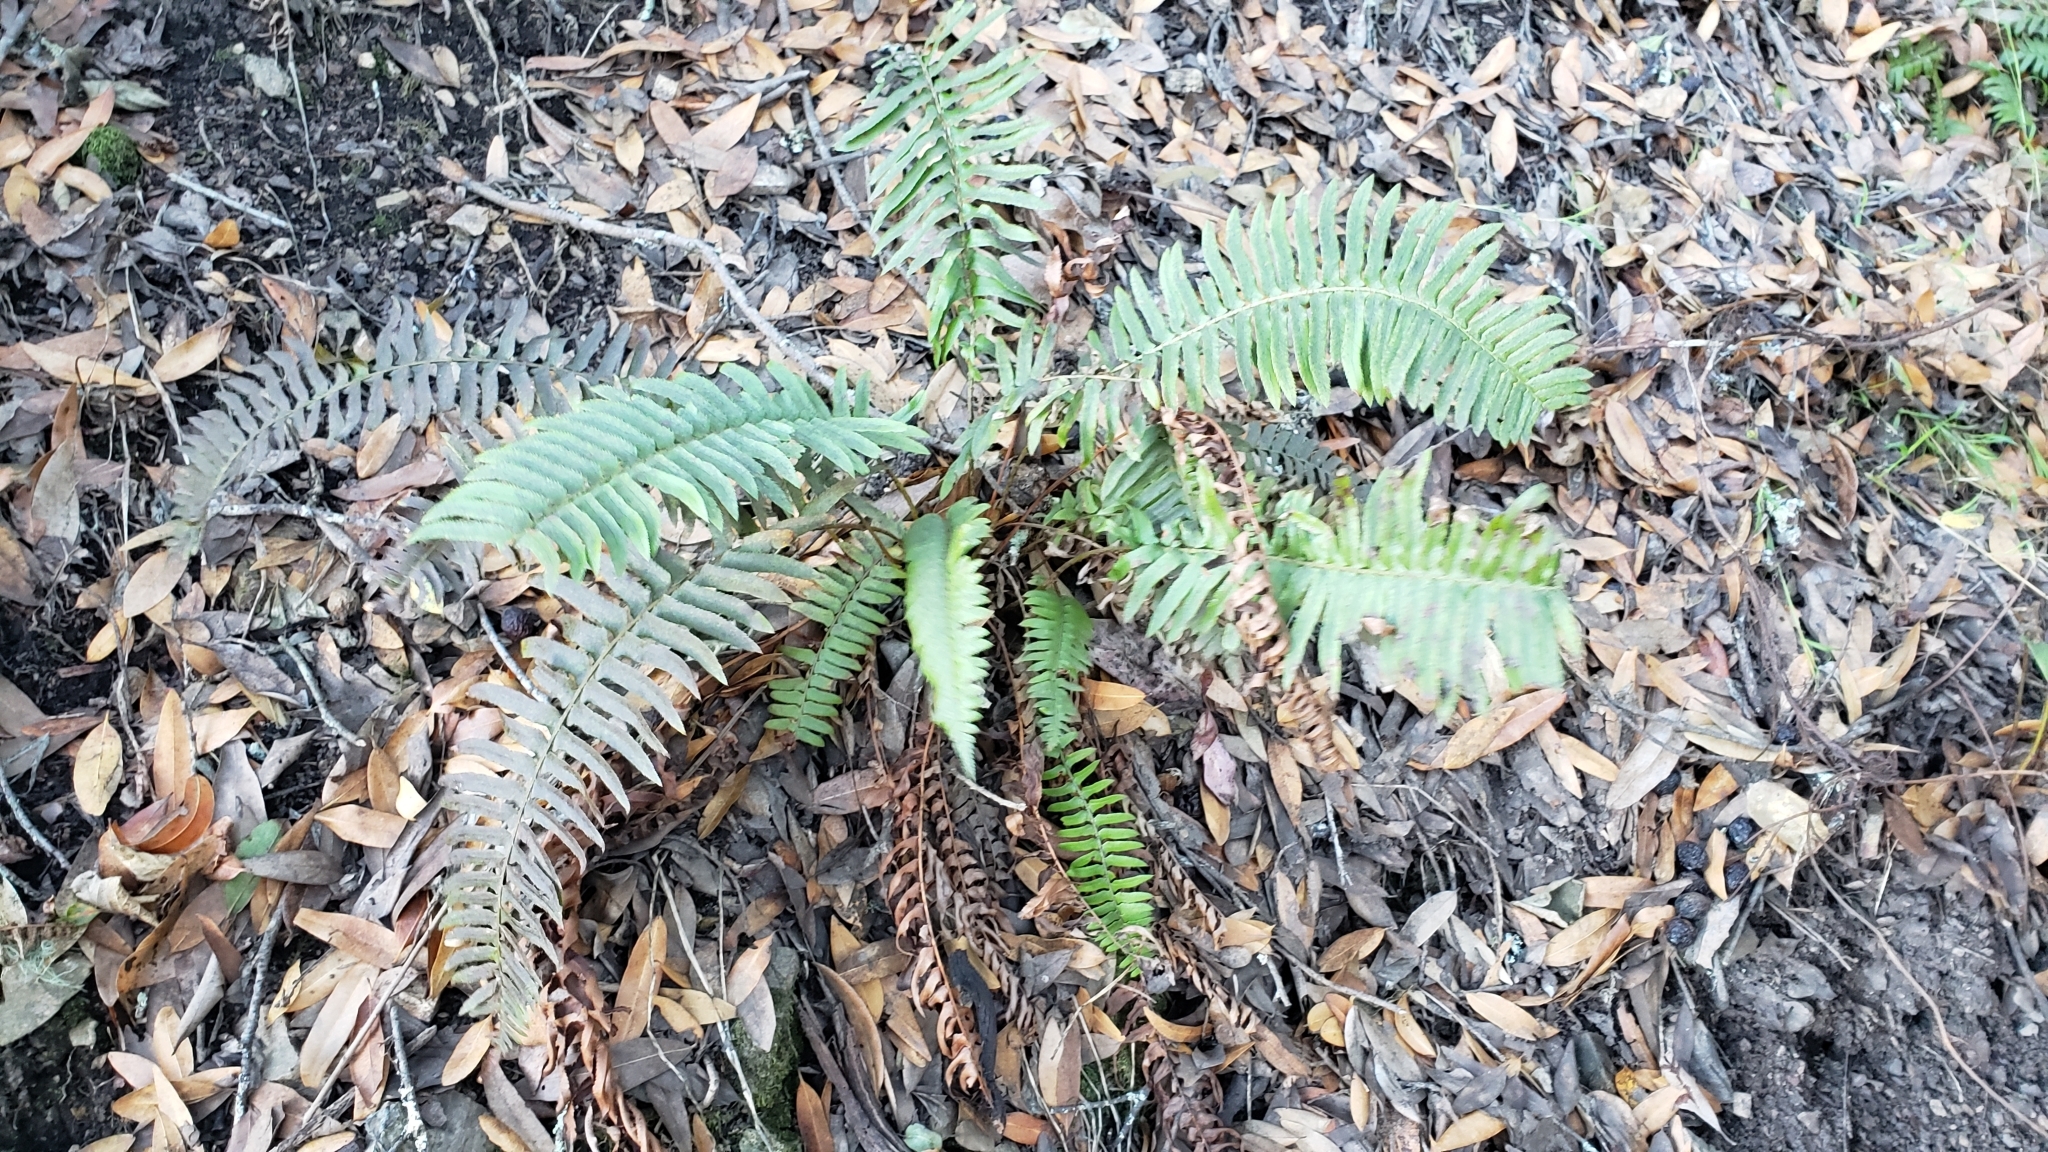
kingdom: Plantae
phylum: Tracheophyta
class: Polypodiopsida
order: Polypodiales
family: Dryopteridaceae
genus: Polystichum
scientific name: Polystichum munitum
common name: Western sword-fern
